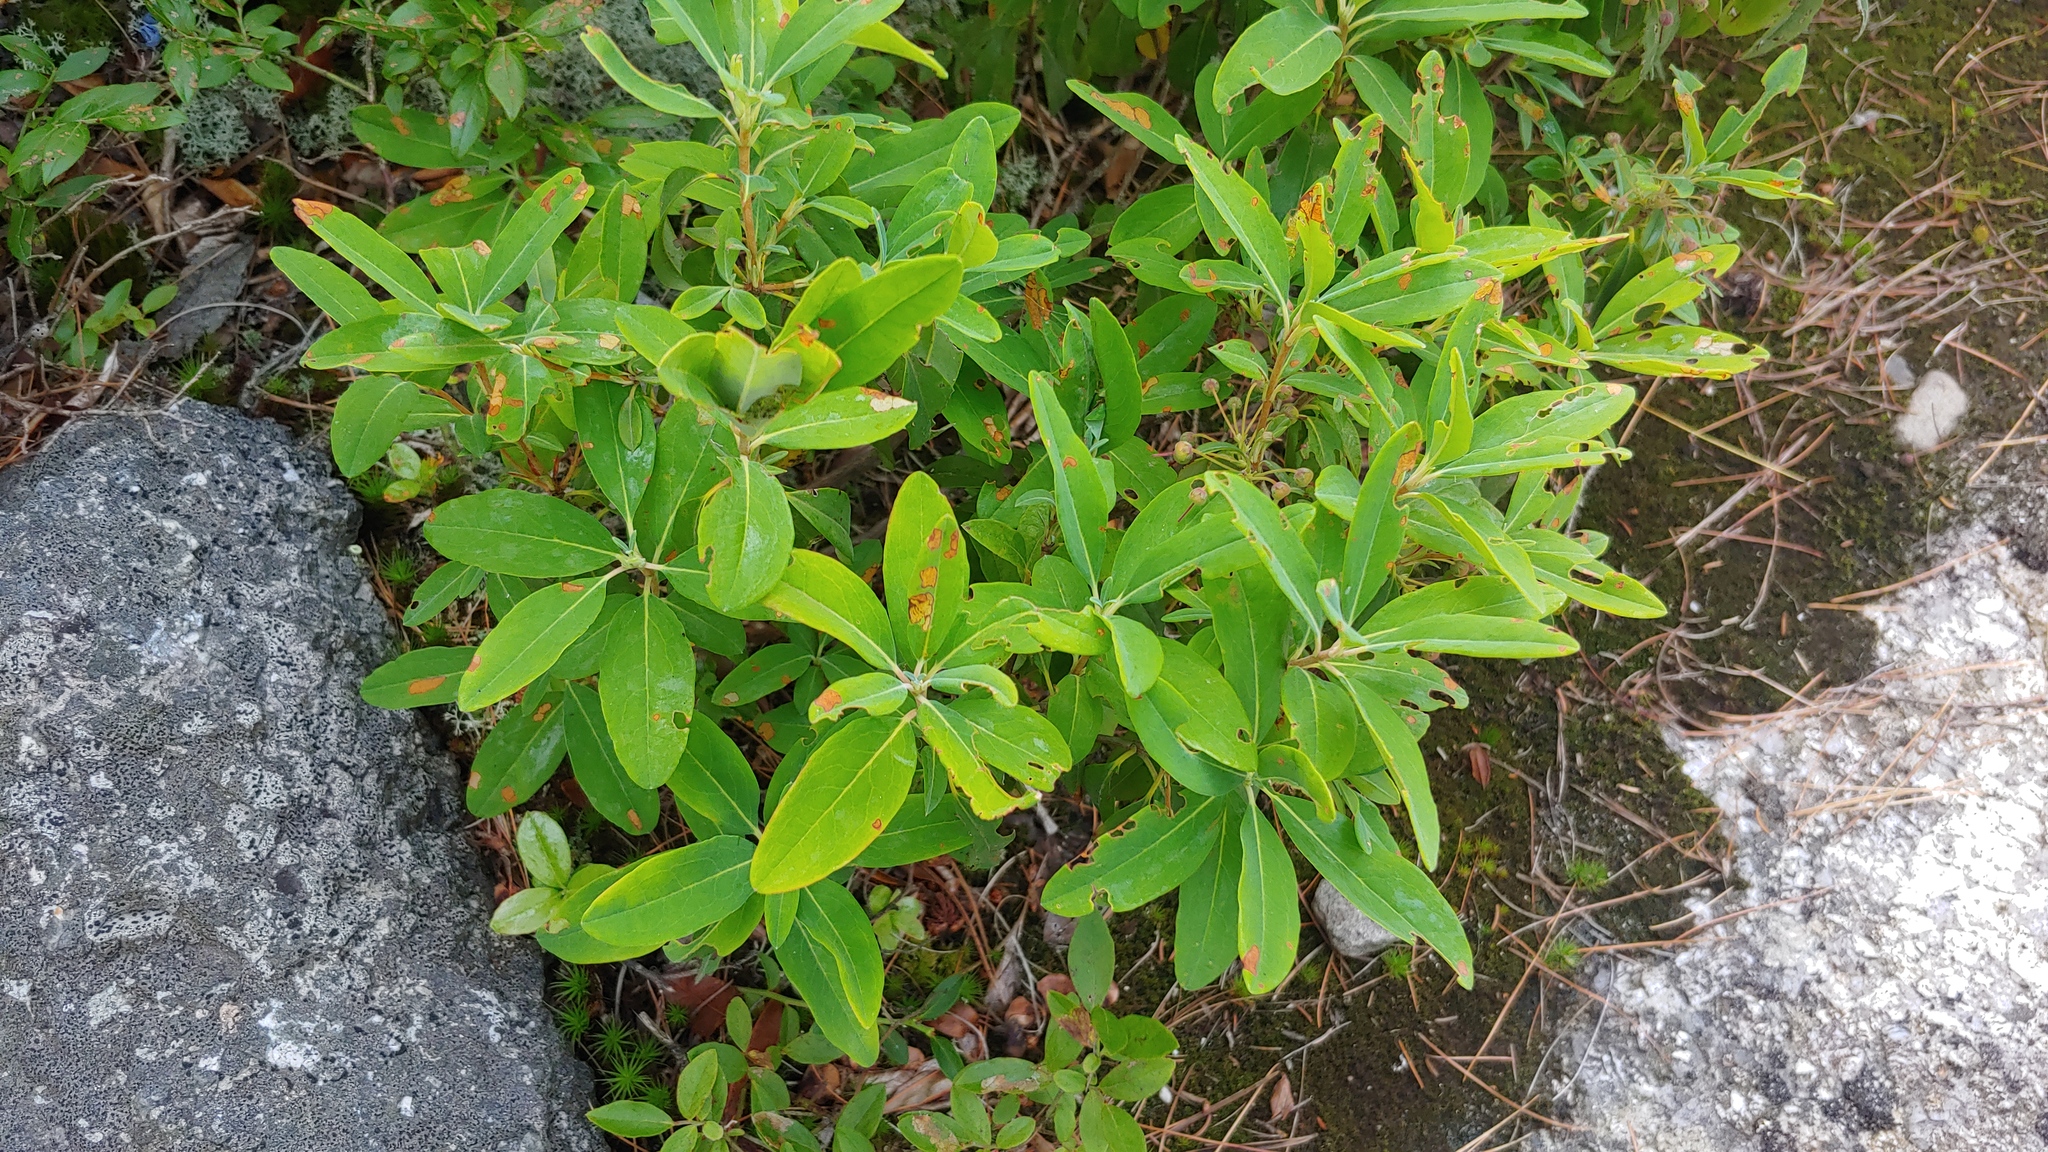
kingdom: Plantae
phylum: Tracheophyta
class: Magnoliopsida
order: Ericales
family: Ericaceae
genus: Kalmia
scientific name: Kalmia angustifolia
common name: Sheep-laurel
